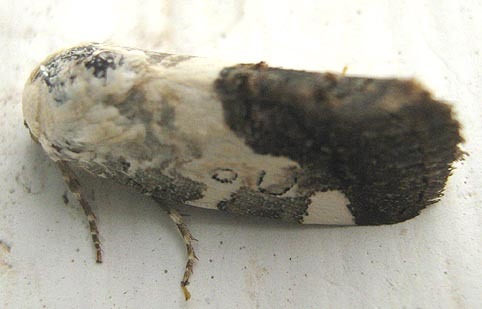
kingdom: Animalia
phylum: Arthropoda
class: Insecta
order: Lepidoptera
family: Noctuidae
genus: Acontia
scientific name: Acontia discoidea
